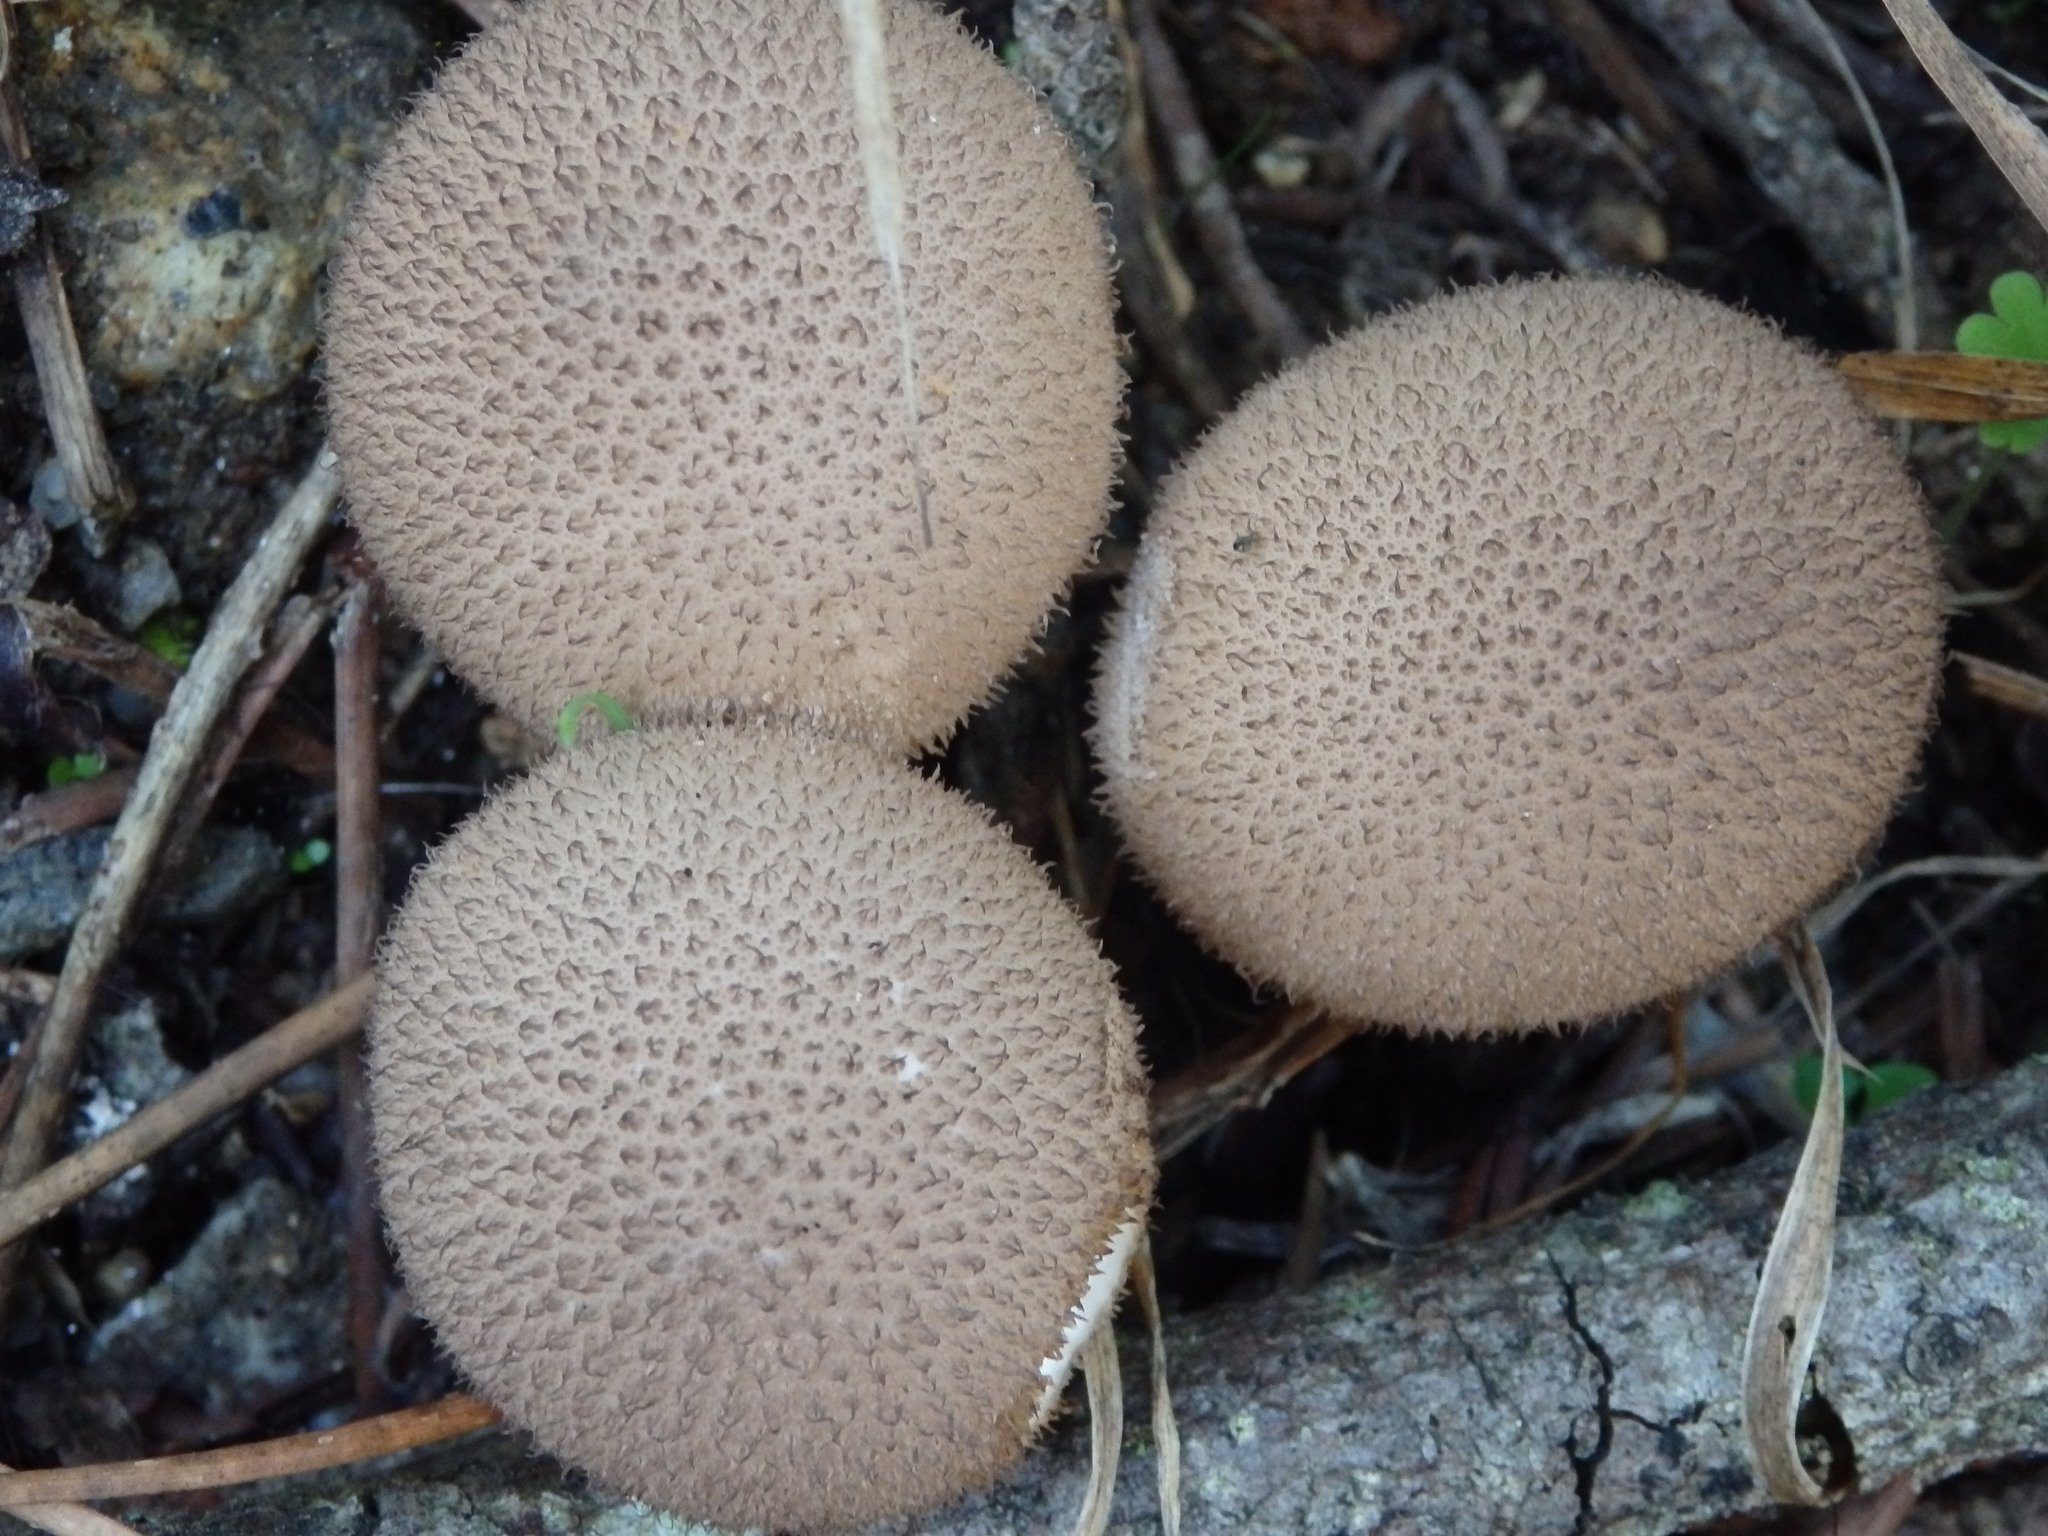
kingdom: Fungi
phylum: Basidiomycota
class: Agaricomycetes
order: Agaricales
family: Lycoperdaceae
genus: Lycoperdon
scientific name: Lycoperdon echinatum
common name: Hedgehog puffball
